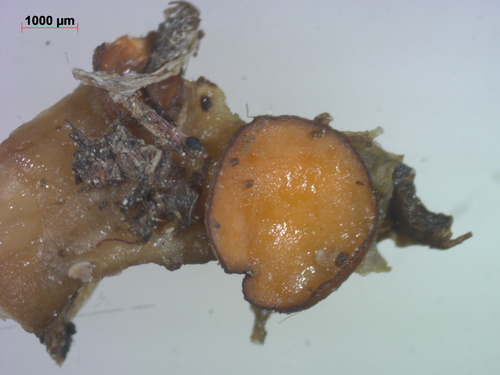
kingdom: Fungi
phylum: Ascomycota
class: Pezizomycetes
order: Pezizales
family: Pseudombrophilaceae
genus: Pseudombrophila
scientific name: Pseudombrophila porcina
